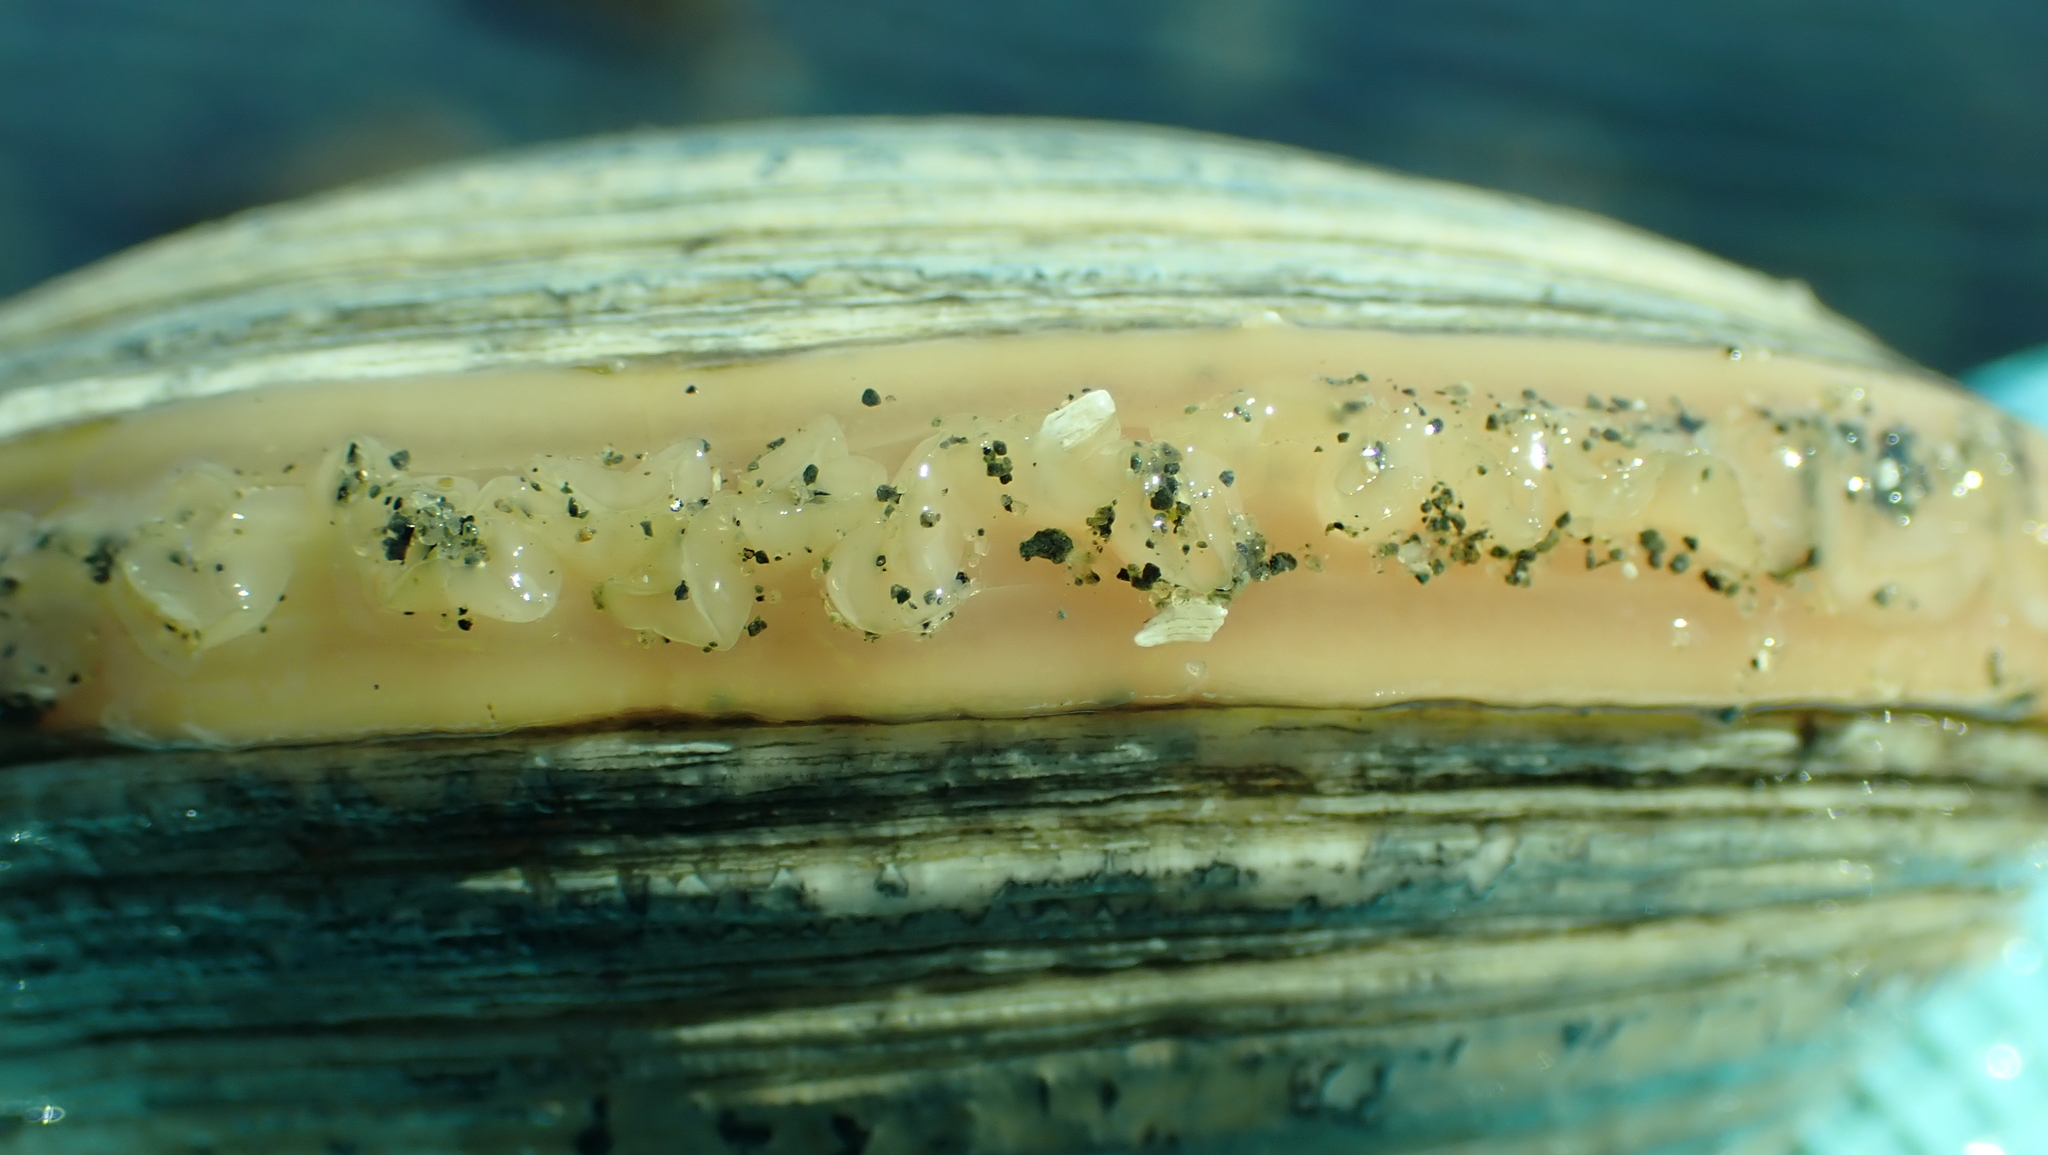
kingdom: Animalia
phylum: Mollusca
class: Bivalvia
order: Venerida
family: Veneridae
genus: Saxidomus
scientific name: Saxidomus gigantea
